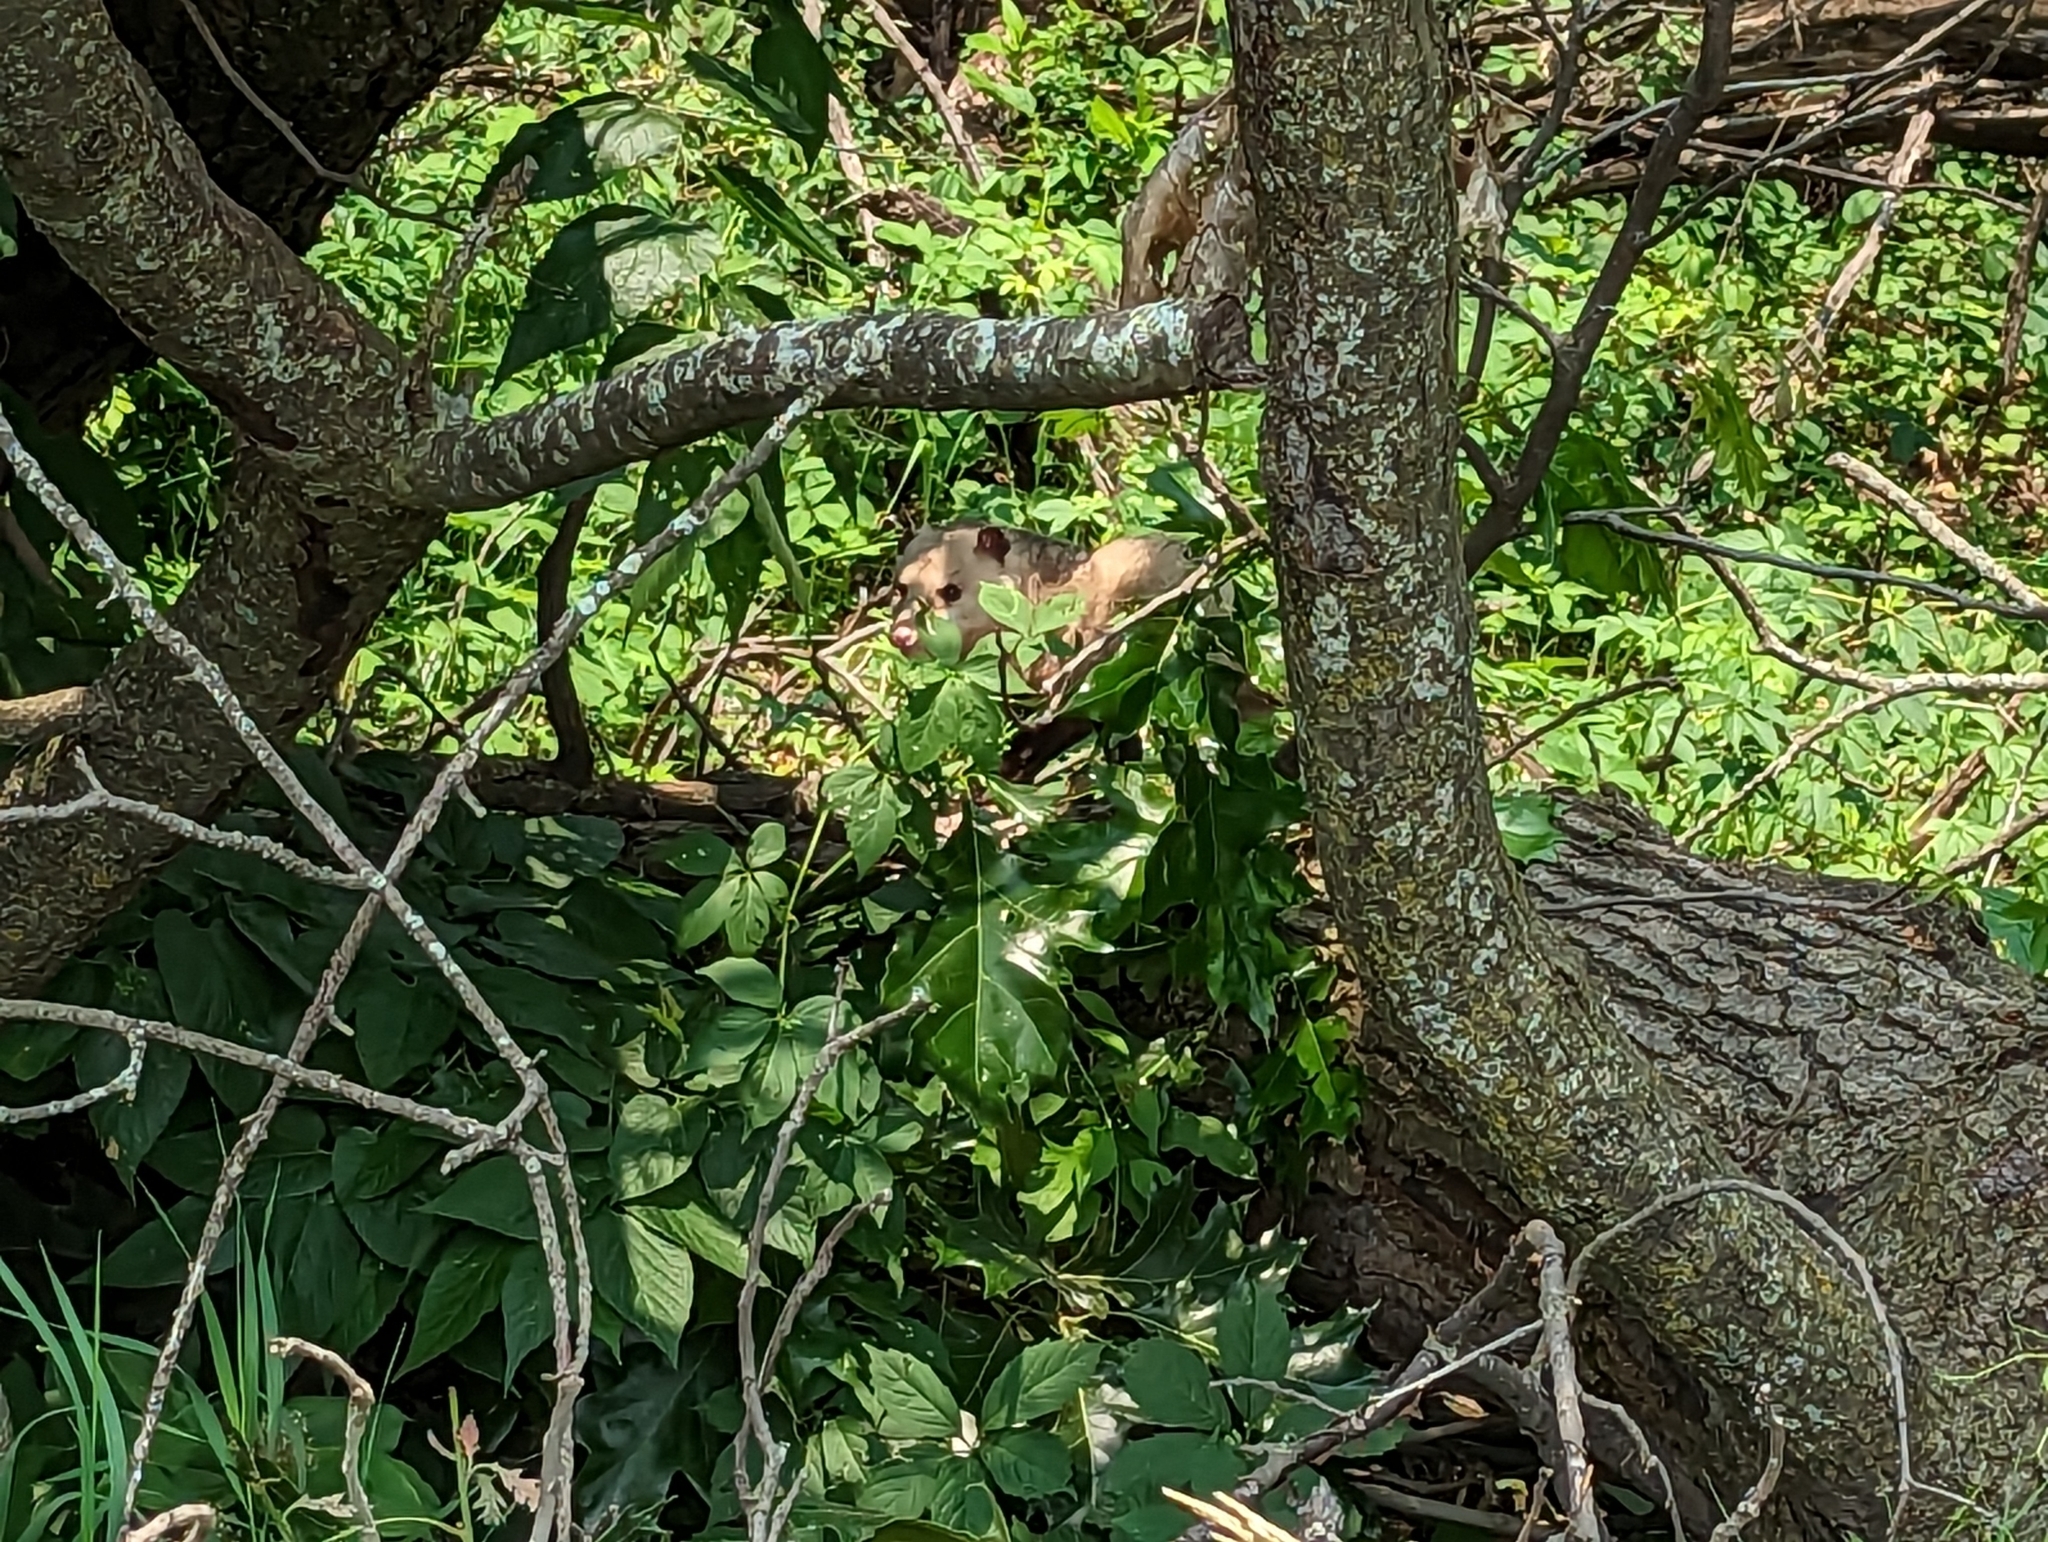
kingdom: Animalia
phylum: Chordata
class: Mammalia
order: Didelphimorphia
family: Didelphidae
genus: Didelphis
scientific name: Didelphis virginiana
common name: Virginia opossum
